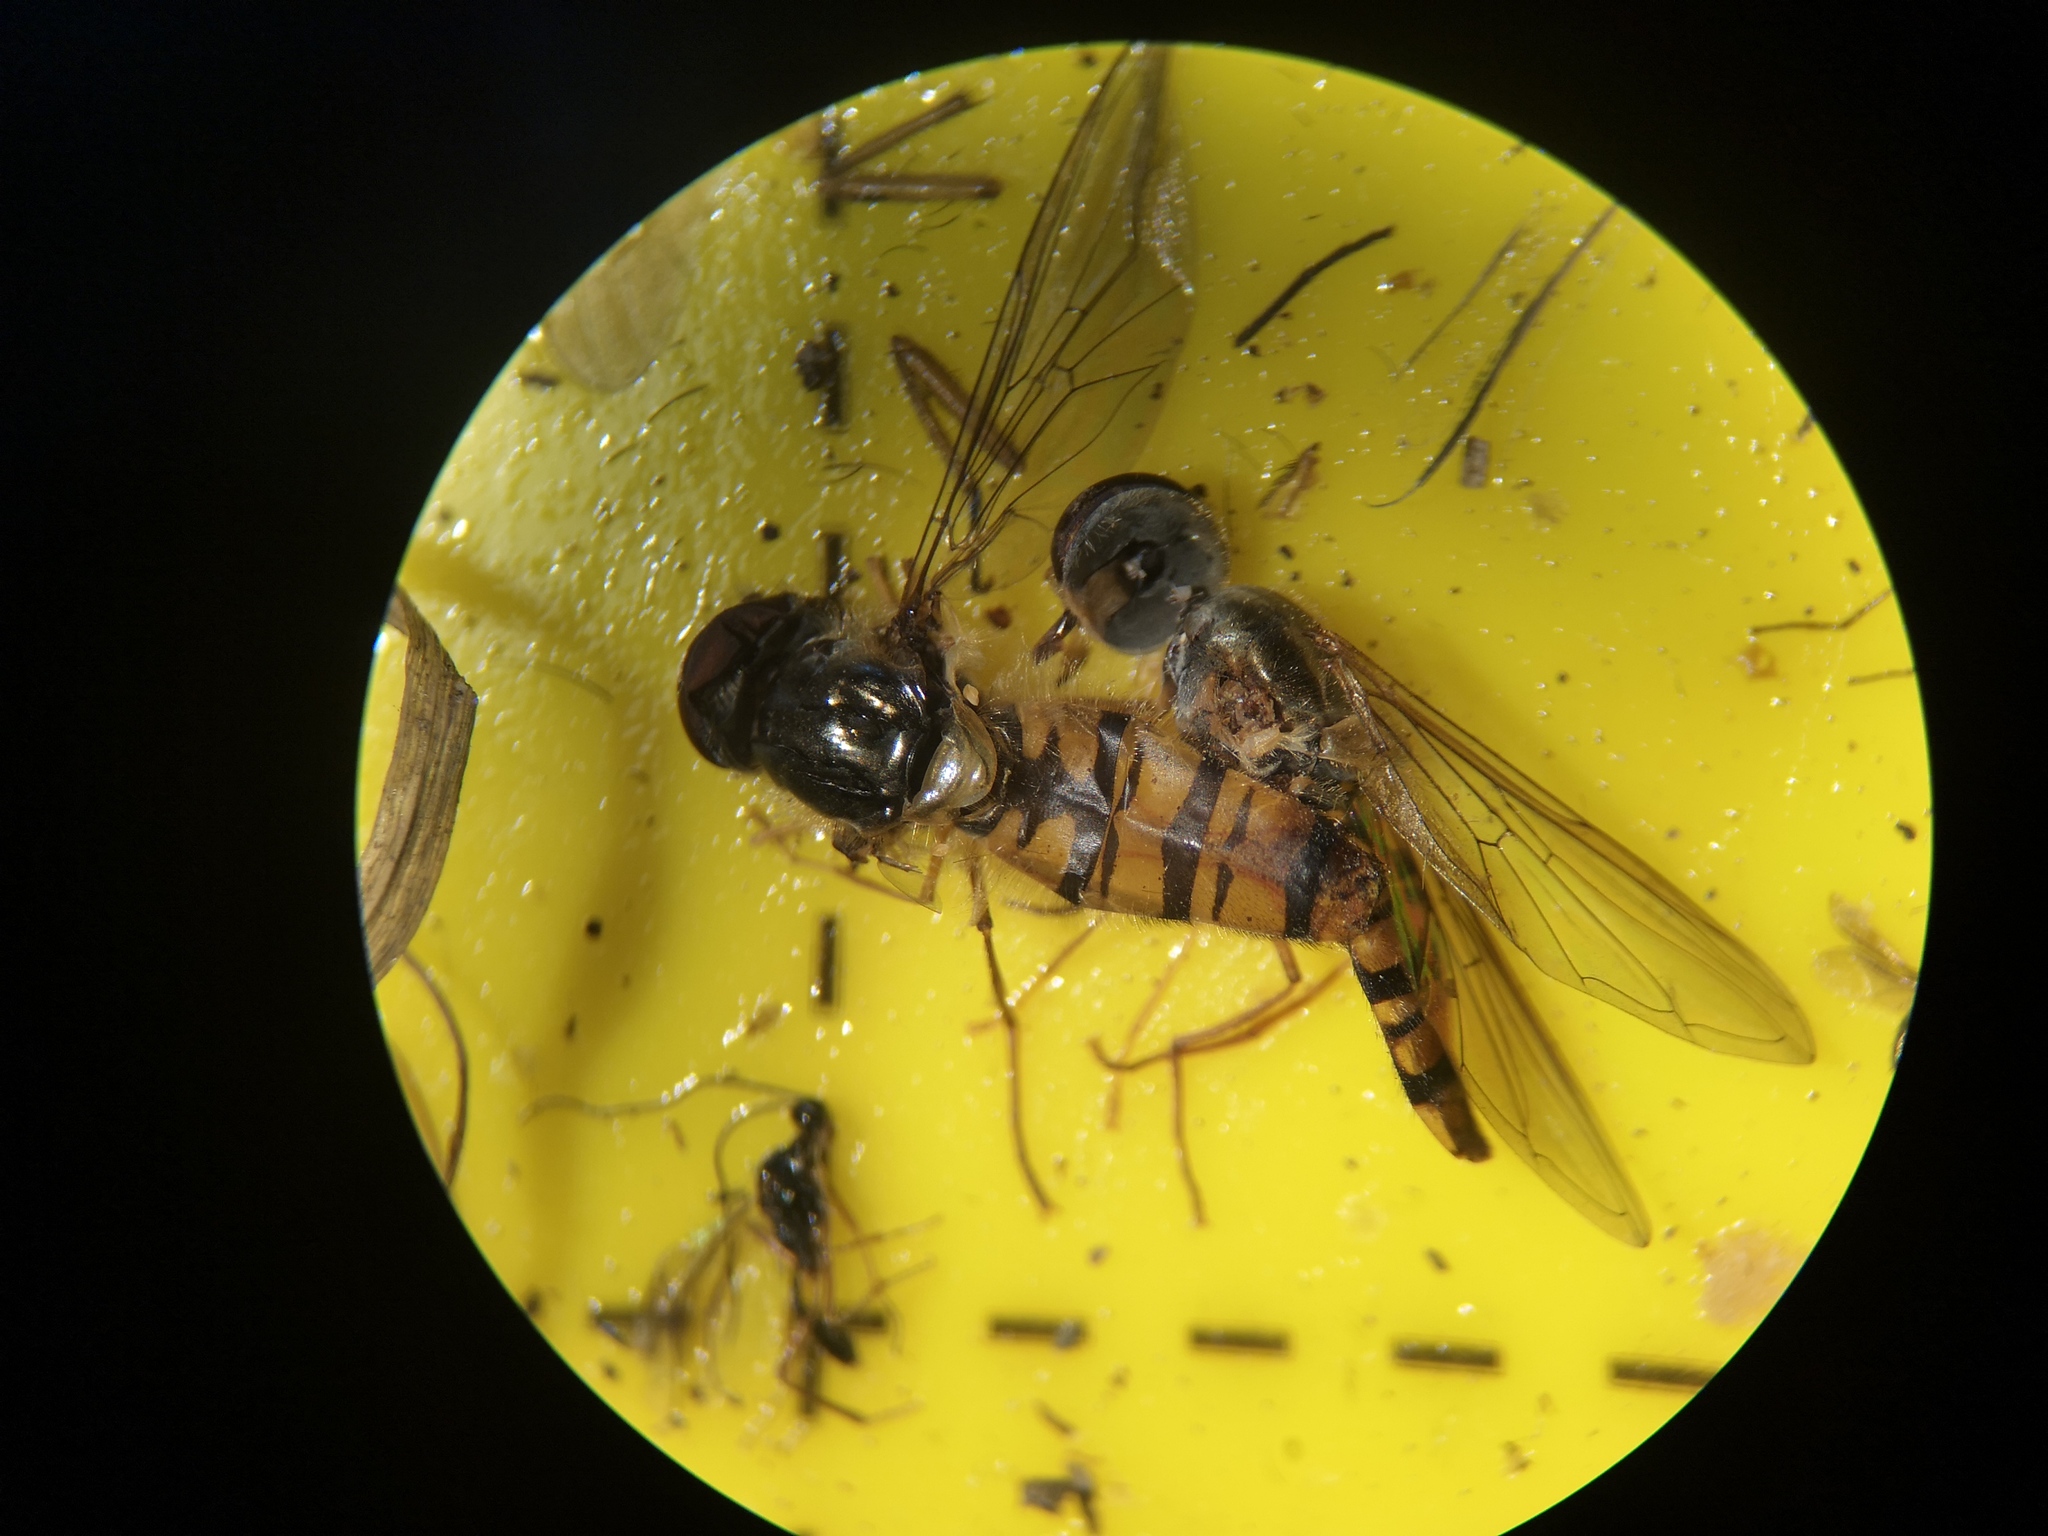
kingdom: Animalia
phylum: Arthropoda
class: Insecta
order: Diptera
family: Syrphidae
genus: Episyrphus
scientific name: Episyrphus balteatus
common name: Marmalade hoverfly
